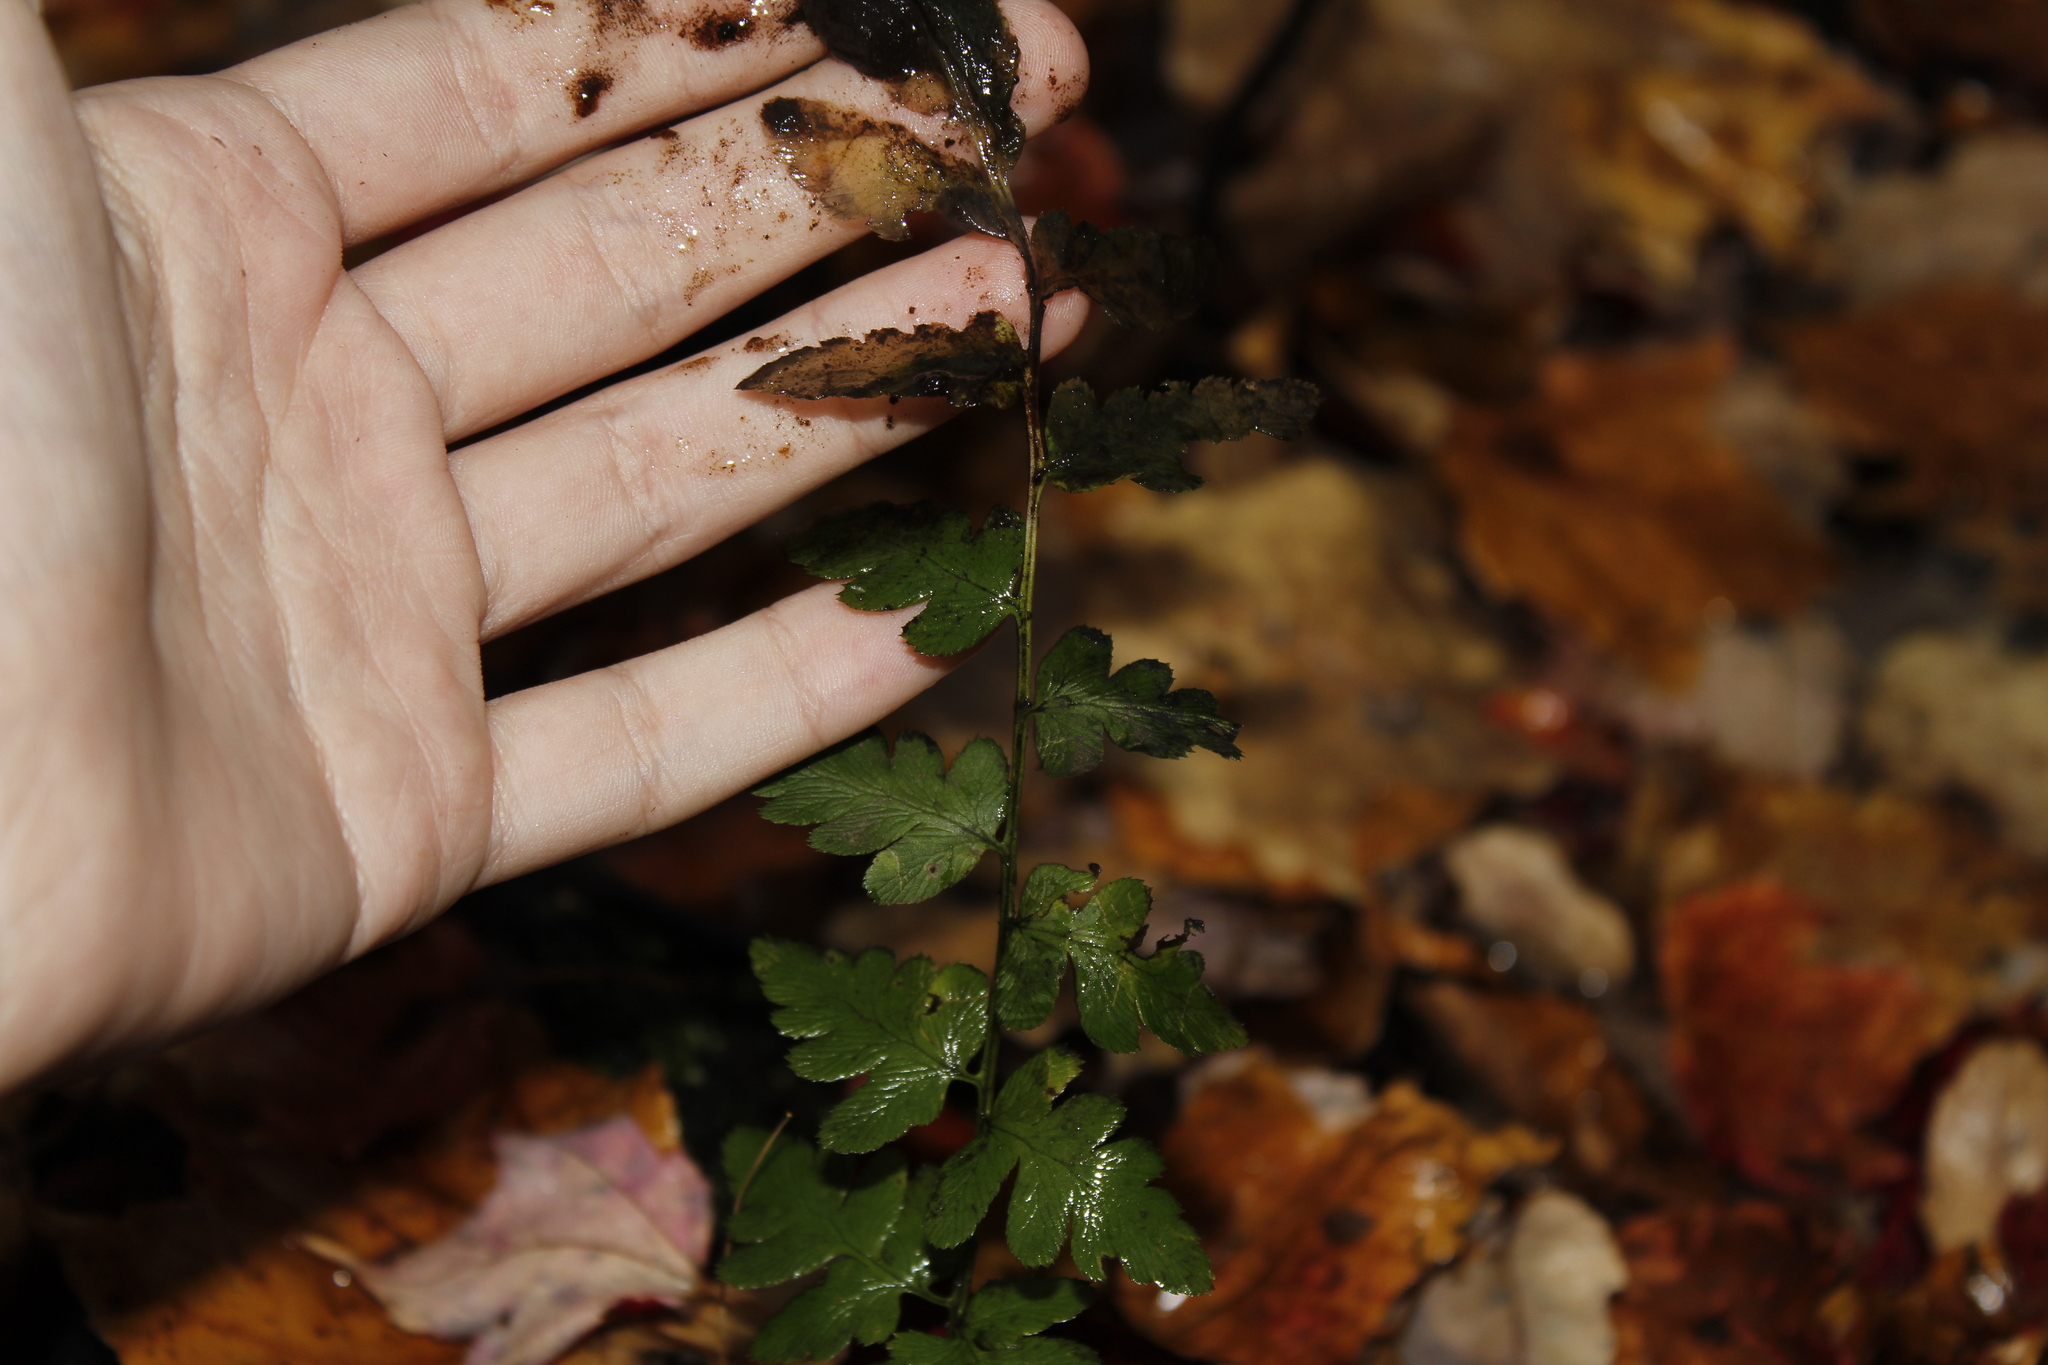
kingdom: Plantae
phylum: Tracheophyta
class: Polypodiopsida
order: Polypodiales
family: Dryopteridaceae
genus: Dryopteris
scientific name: Dryopteris cristata
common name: Crested wood fern
